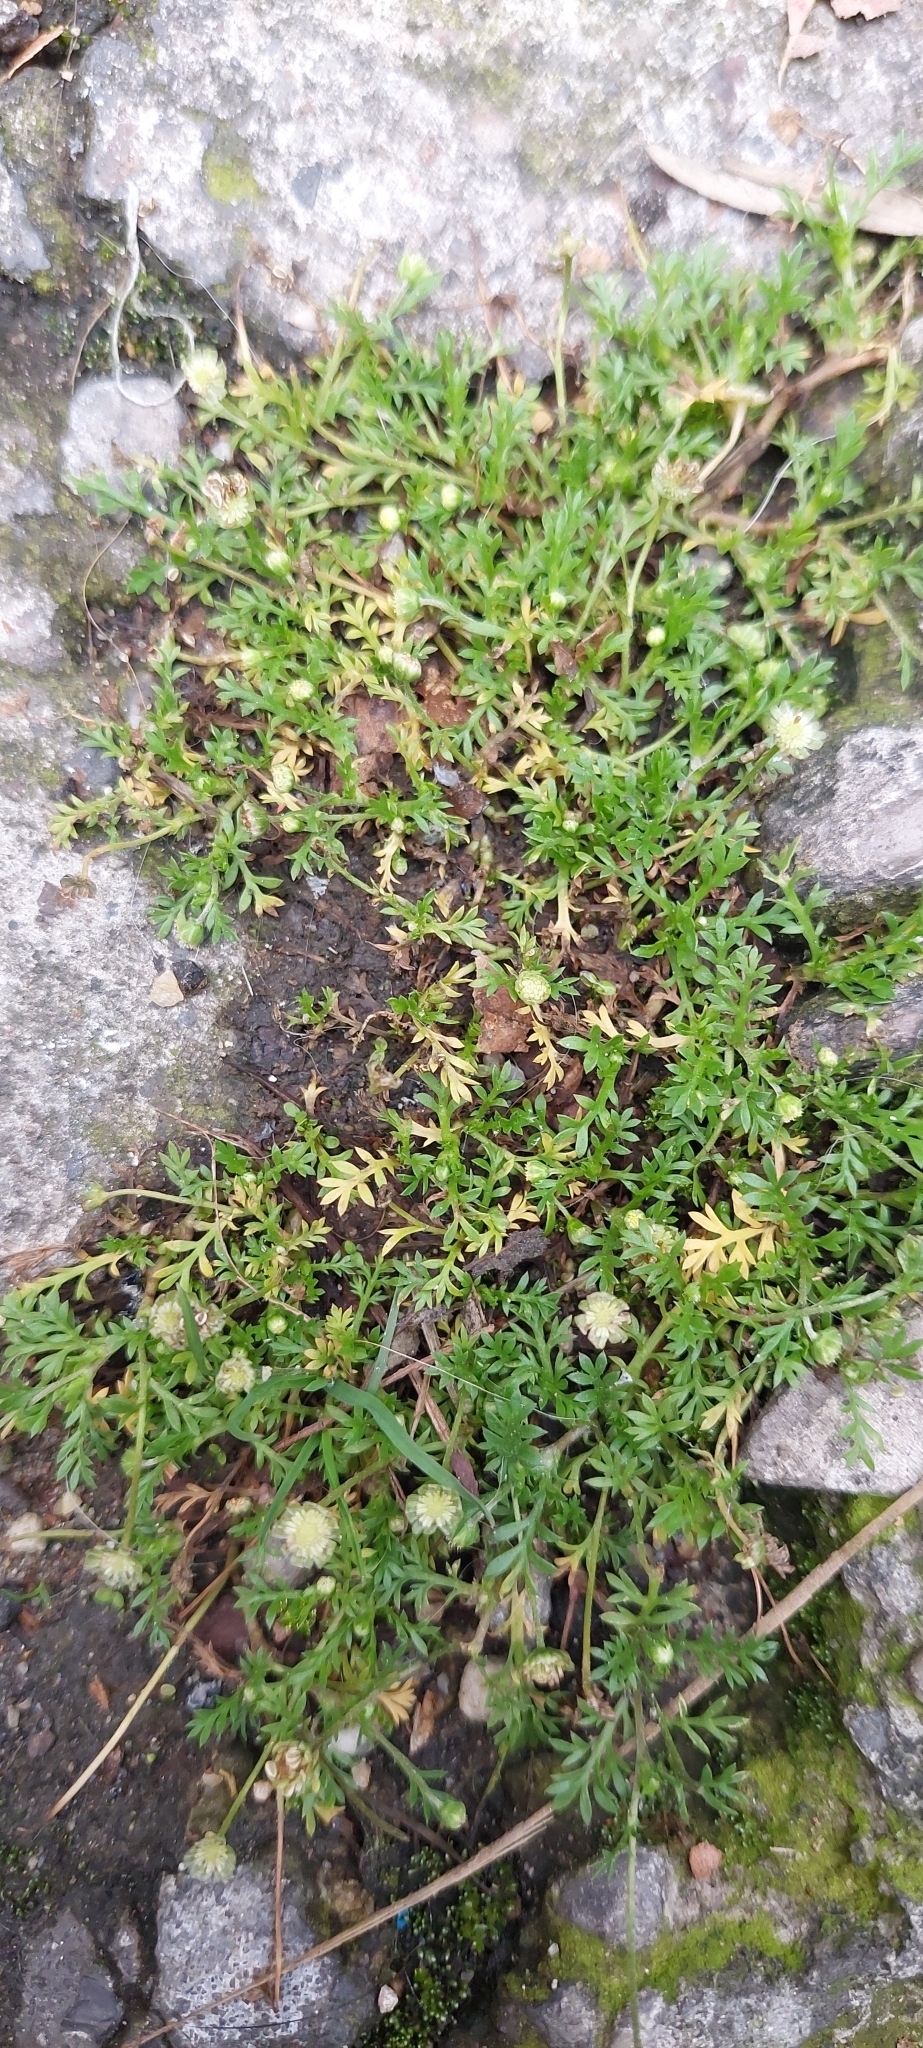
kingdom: Plantae
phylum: Tracheophyta
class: Magnoliopsida
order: Asterales
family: Asteraceae
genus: Cotula
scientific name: Cotula australis
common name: Australian waterbuttons
